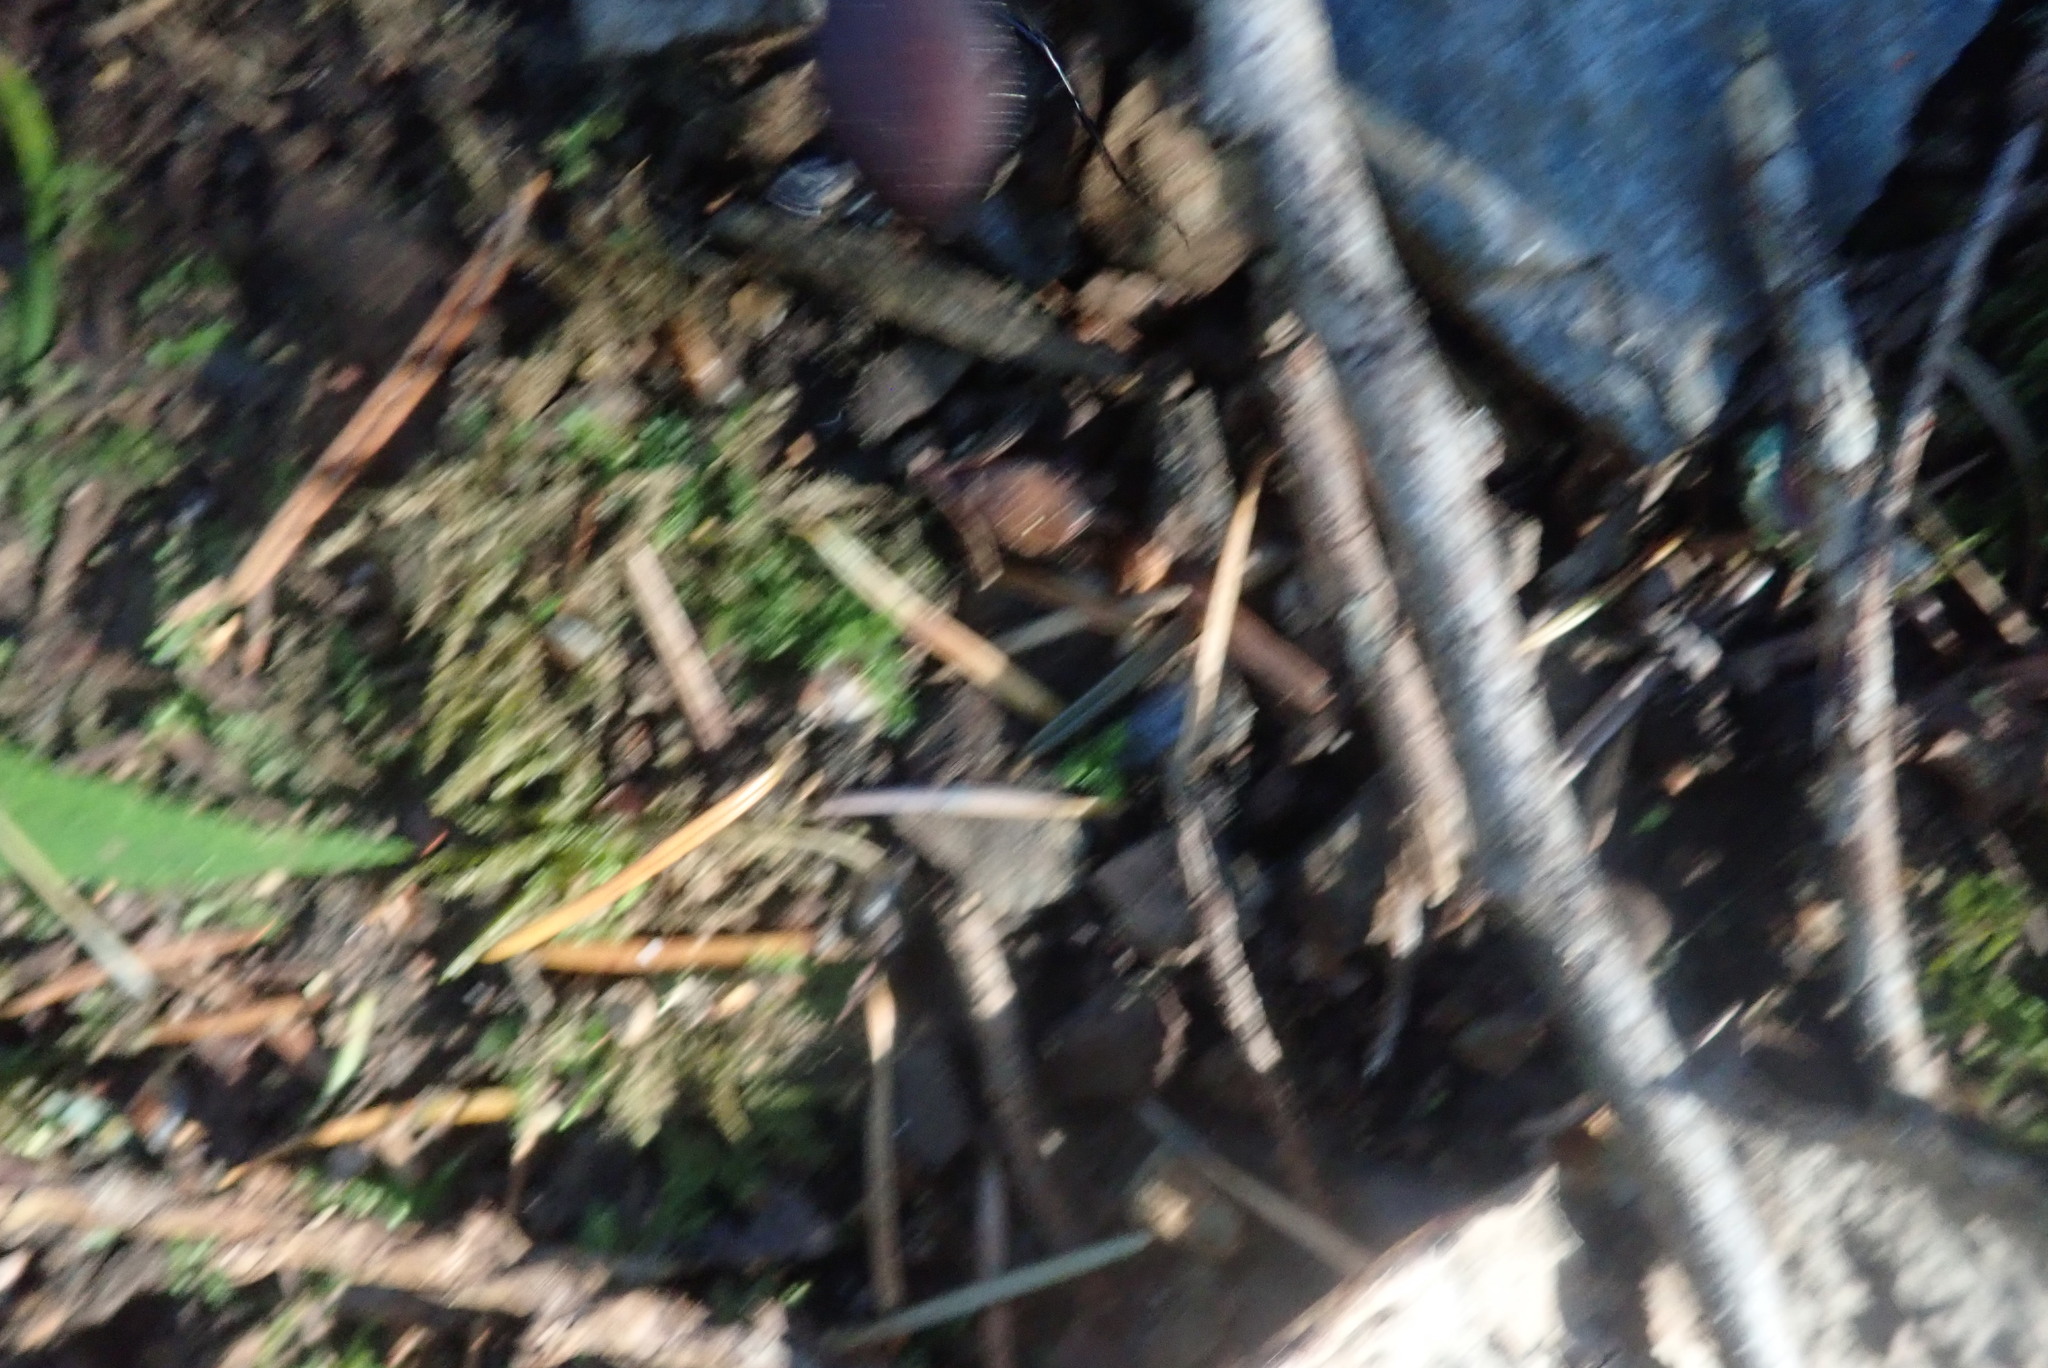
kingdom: Animalia
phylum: Arthropoda
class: Insecta
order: Coleoptera
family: Carabidae
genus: Scaphinotus
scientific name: Scaphinotus angusticollis
